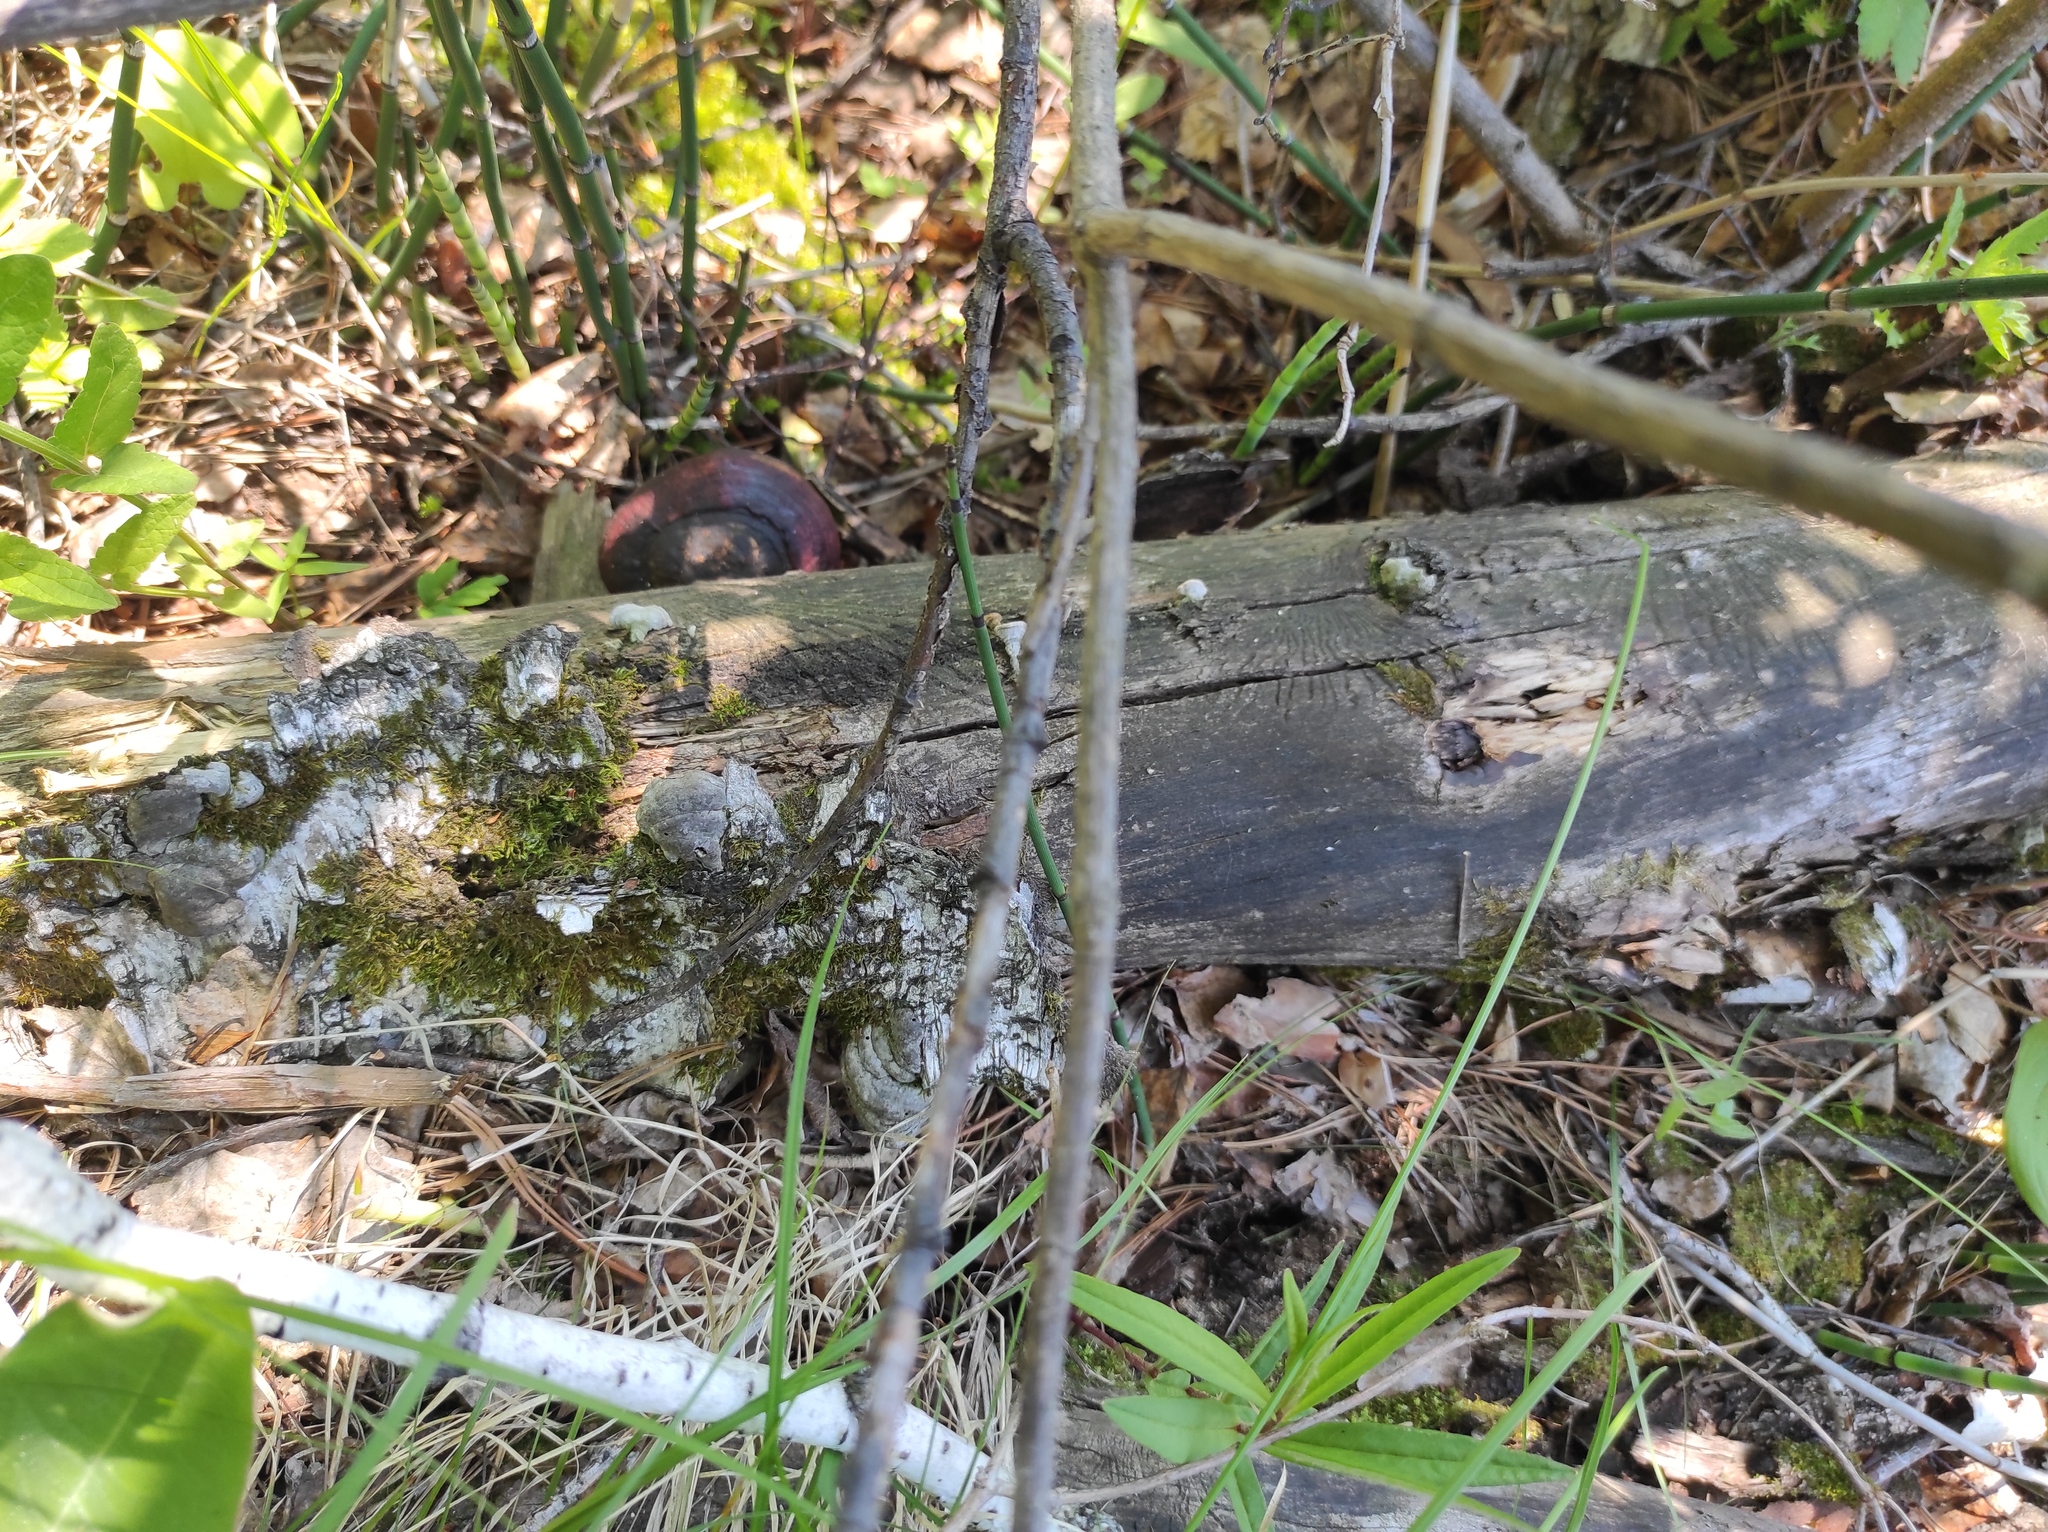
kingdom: Plantae
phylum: Tracheophyta
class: Polypodiopsida
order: Equisetales
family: Equisetaceae
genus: Equisetum
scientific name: Equisetum hyemale
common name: Rough horsetail
